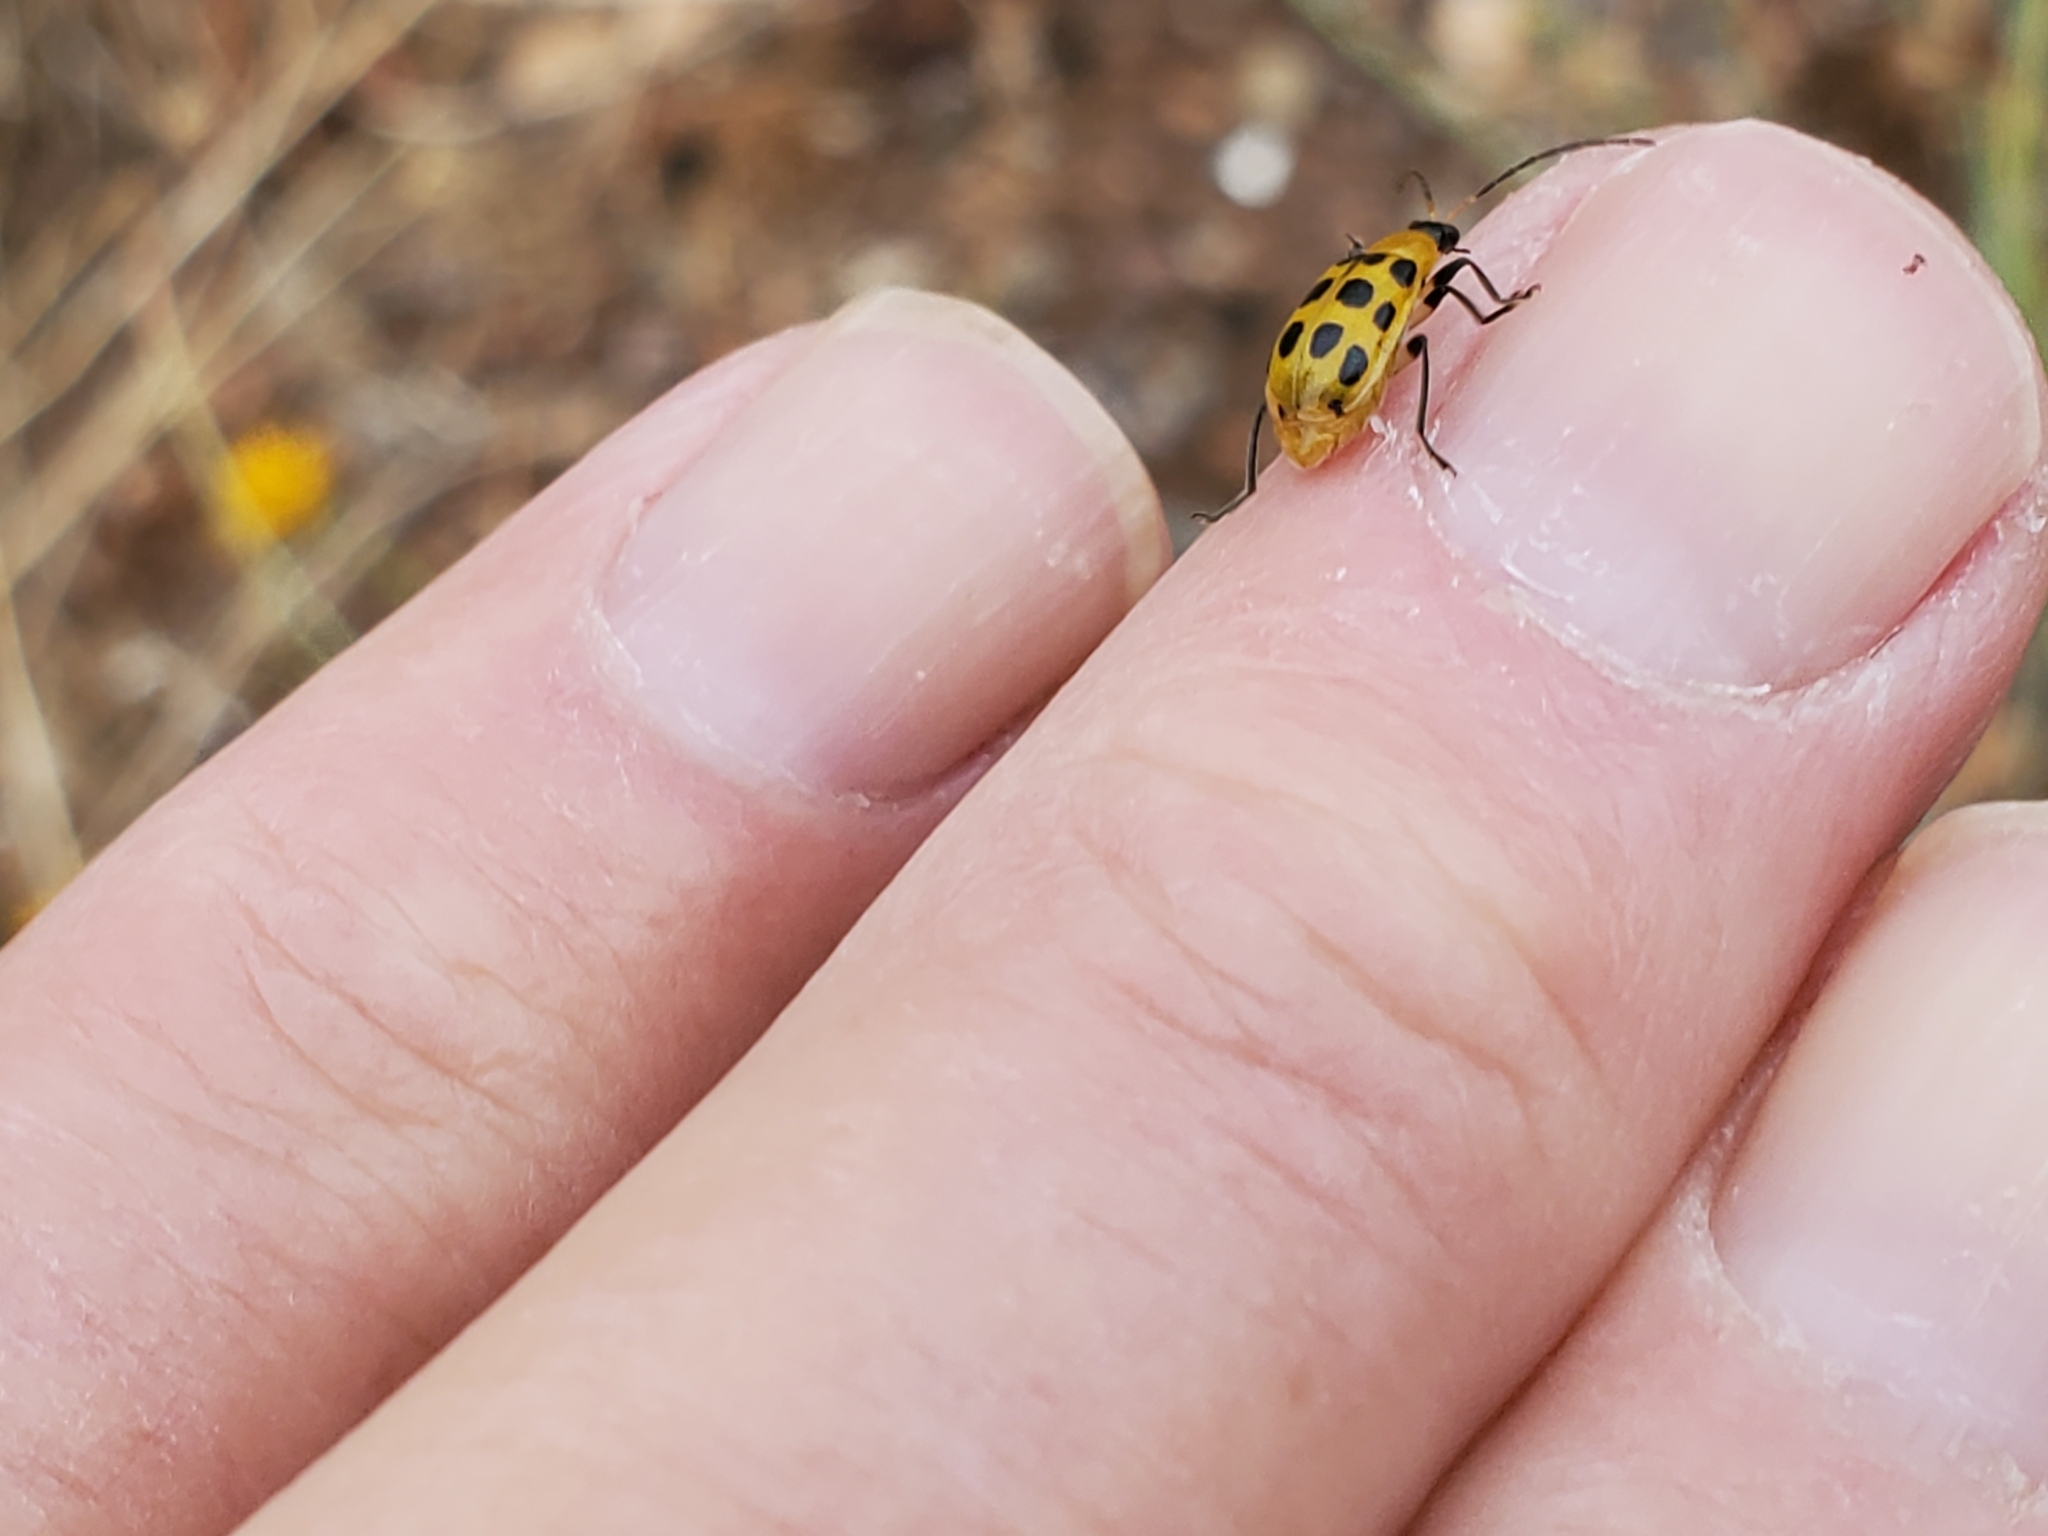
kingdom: Animalia
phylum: Arthropoda
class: Insecta
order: Coleoptera
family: Chrysomelidae
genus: Diabrotica
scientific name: Diabrotica undecimpunctata
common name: Spotted cucumber beetle
